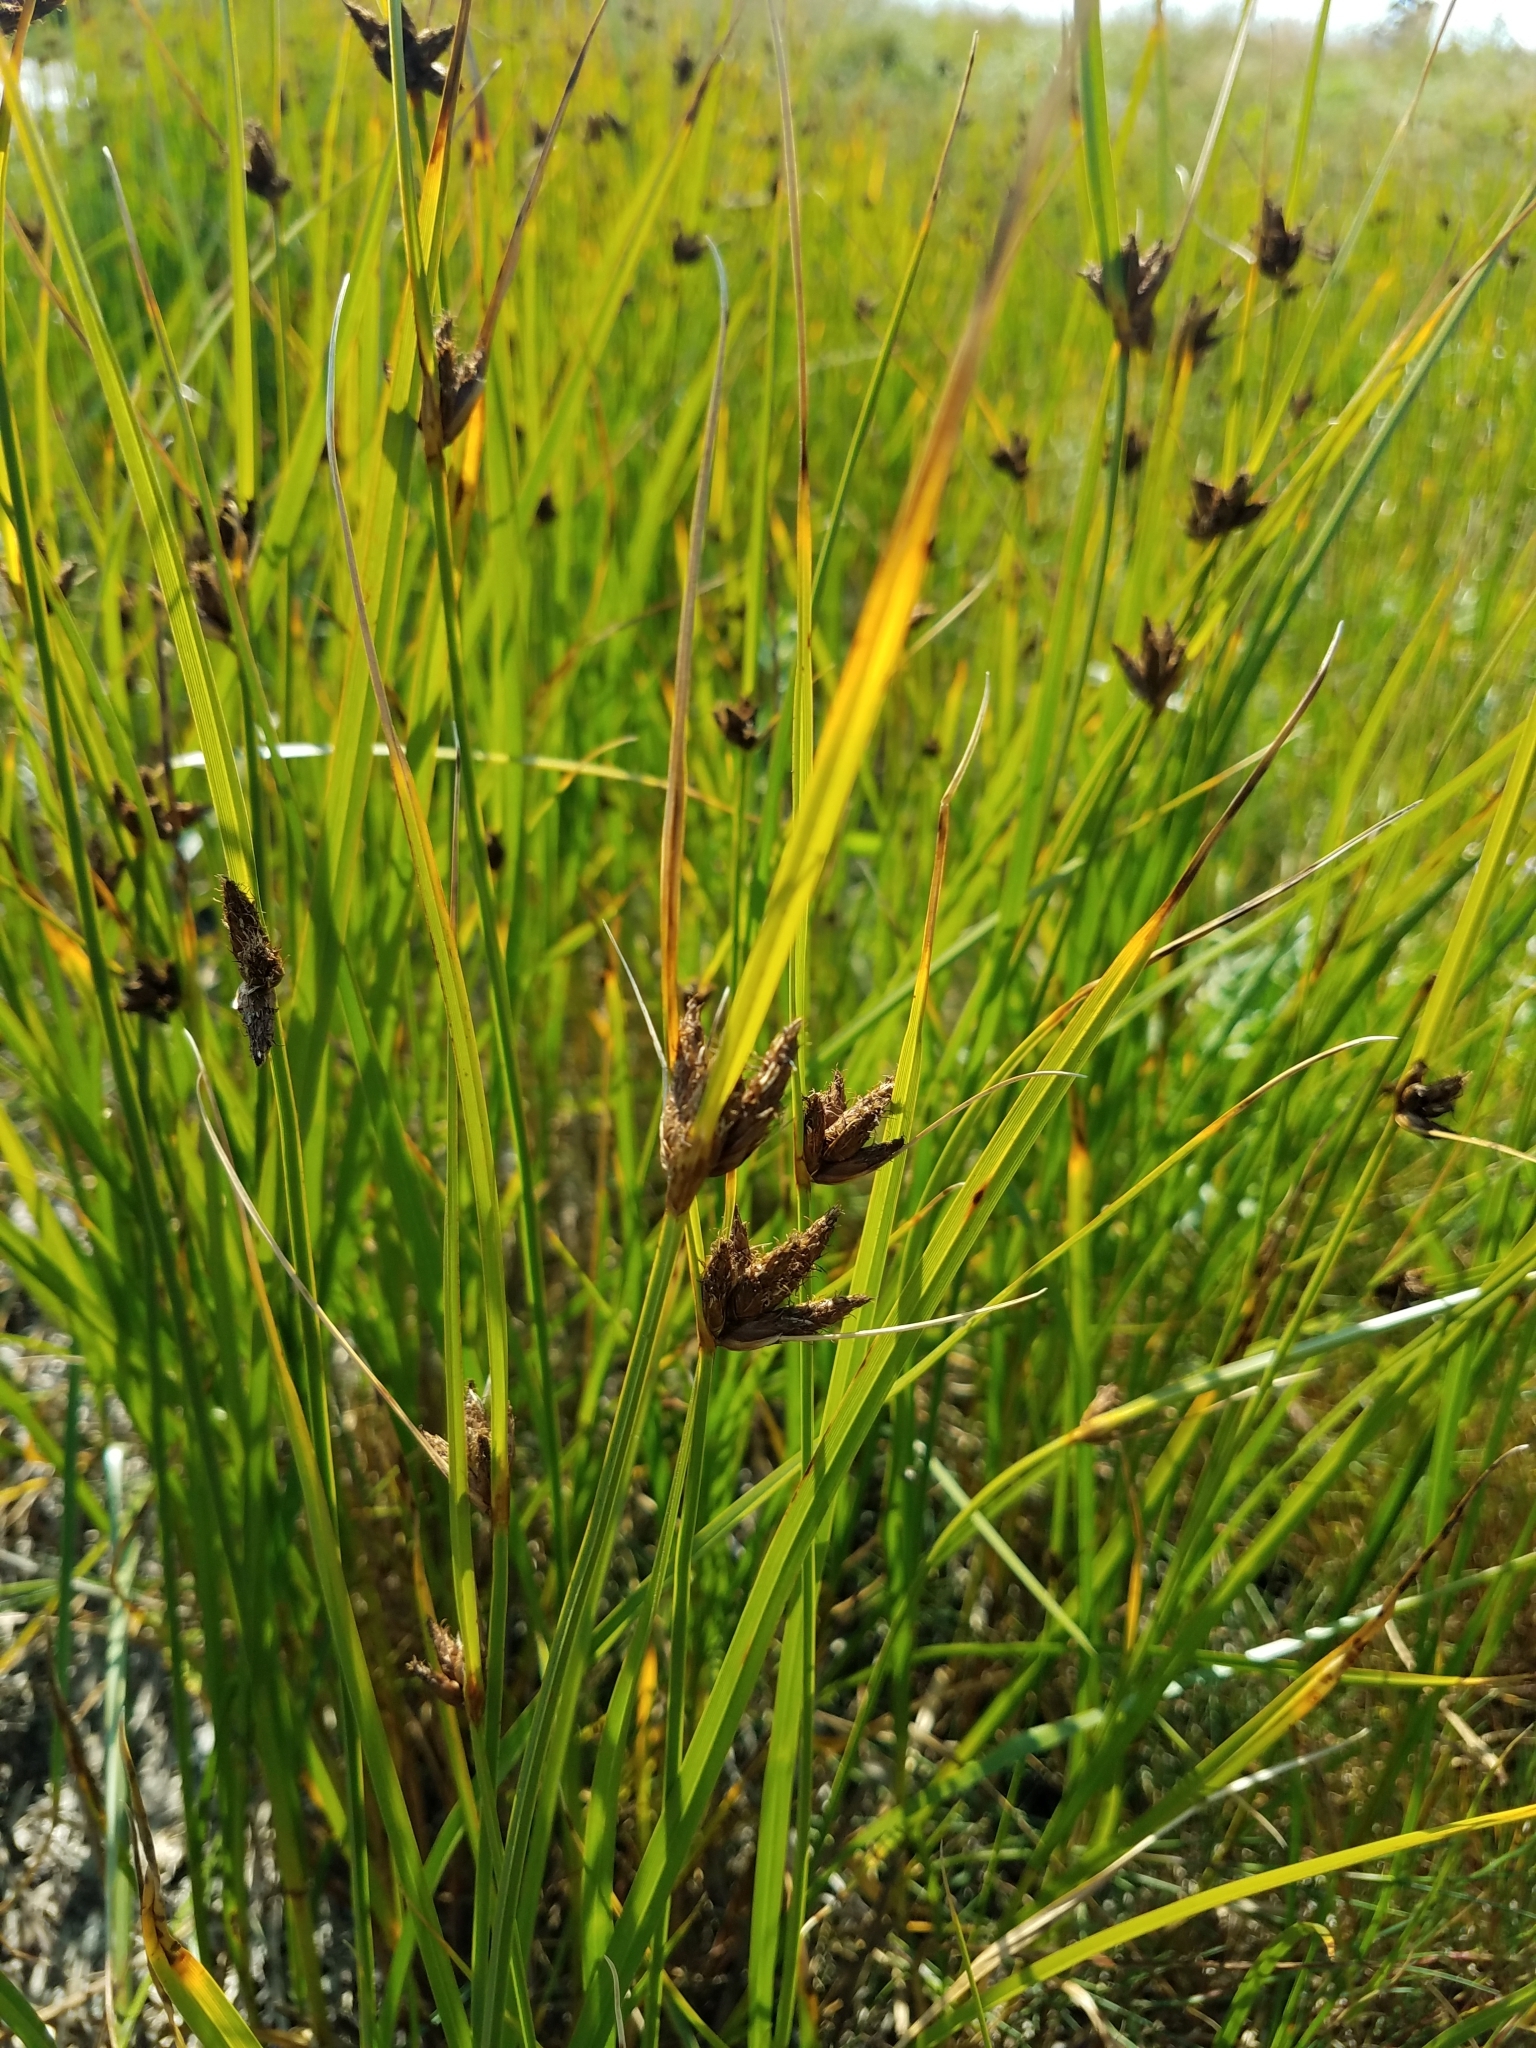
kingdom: Plantae
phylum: Tracheophyta
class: Liliopsida
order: Poales
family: Cyperaceae
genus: Bolboschoenus
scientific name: Bolboschoenus maritimus
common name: Sea club-rush
